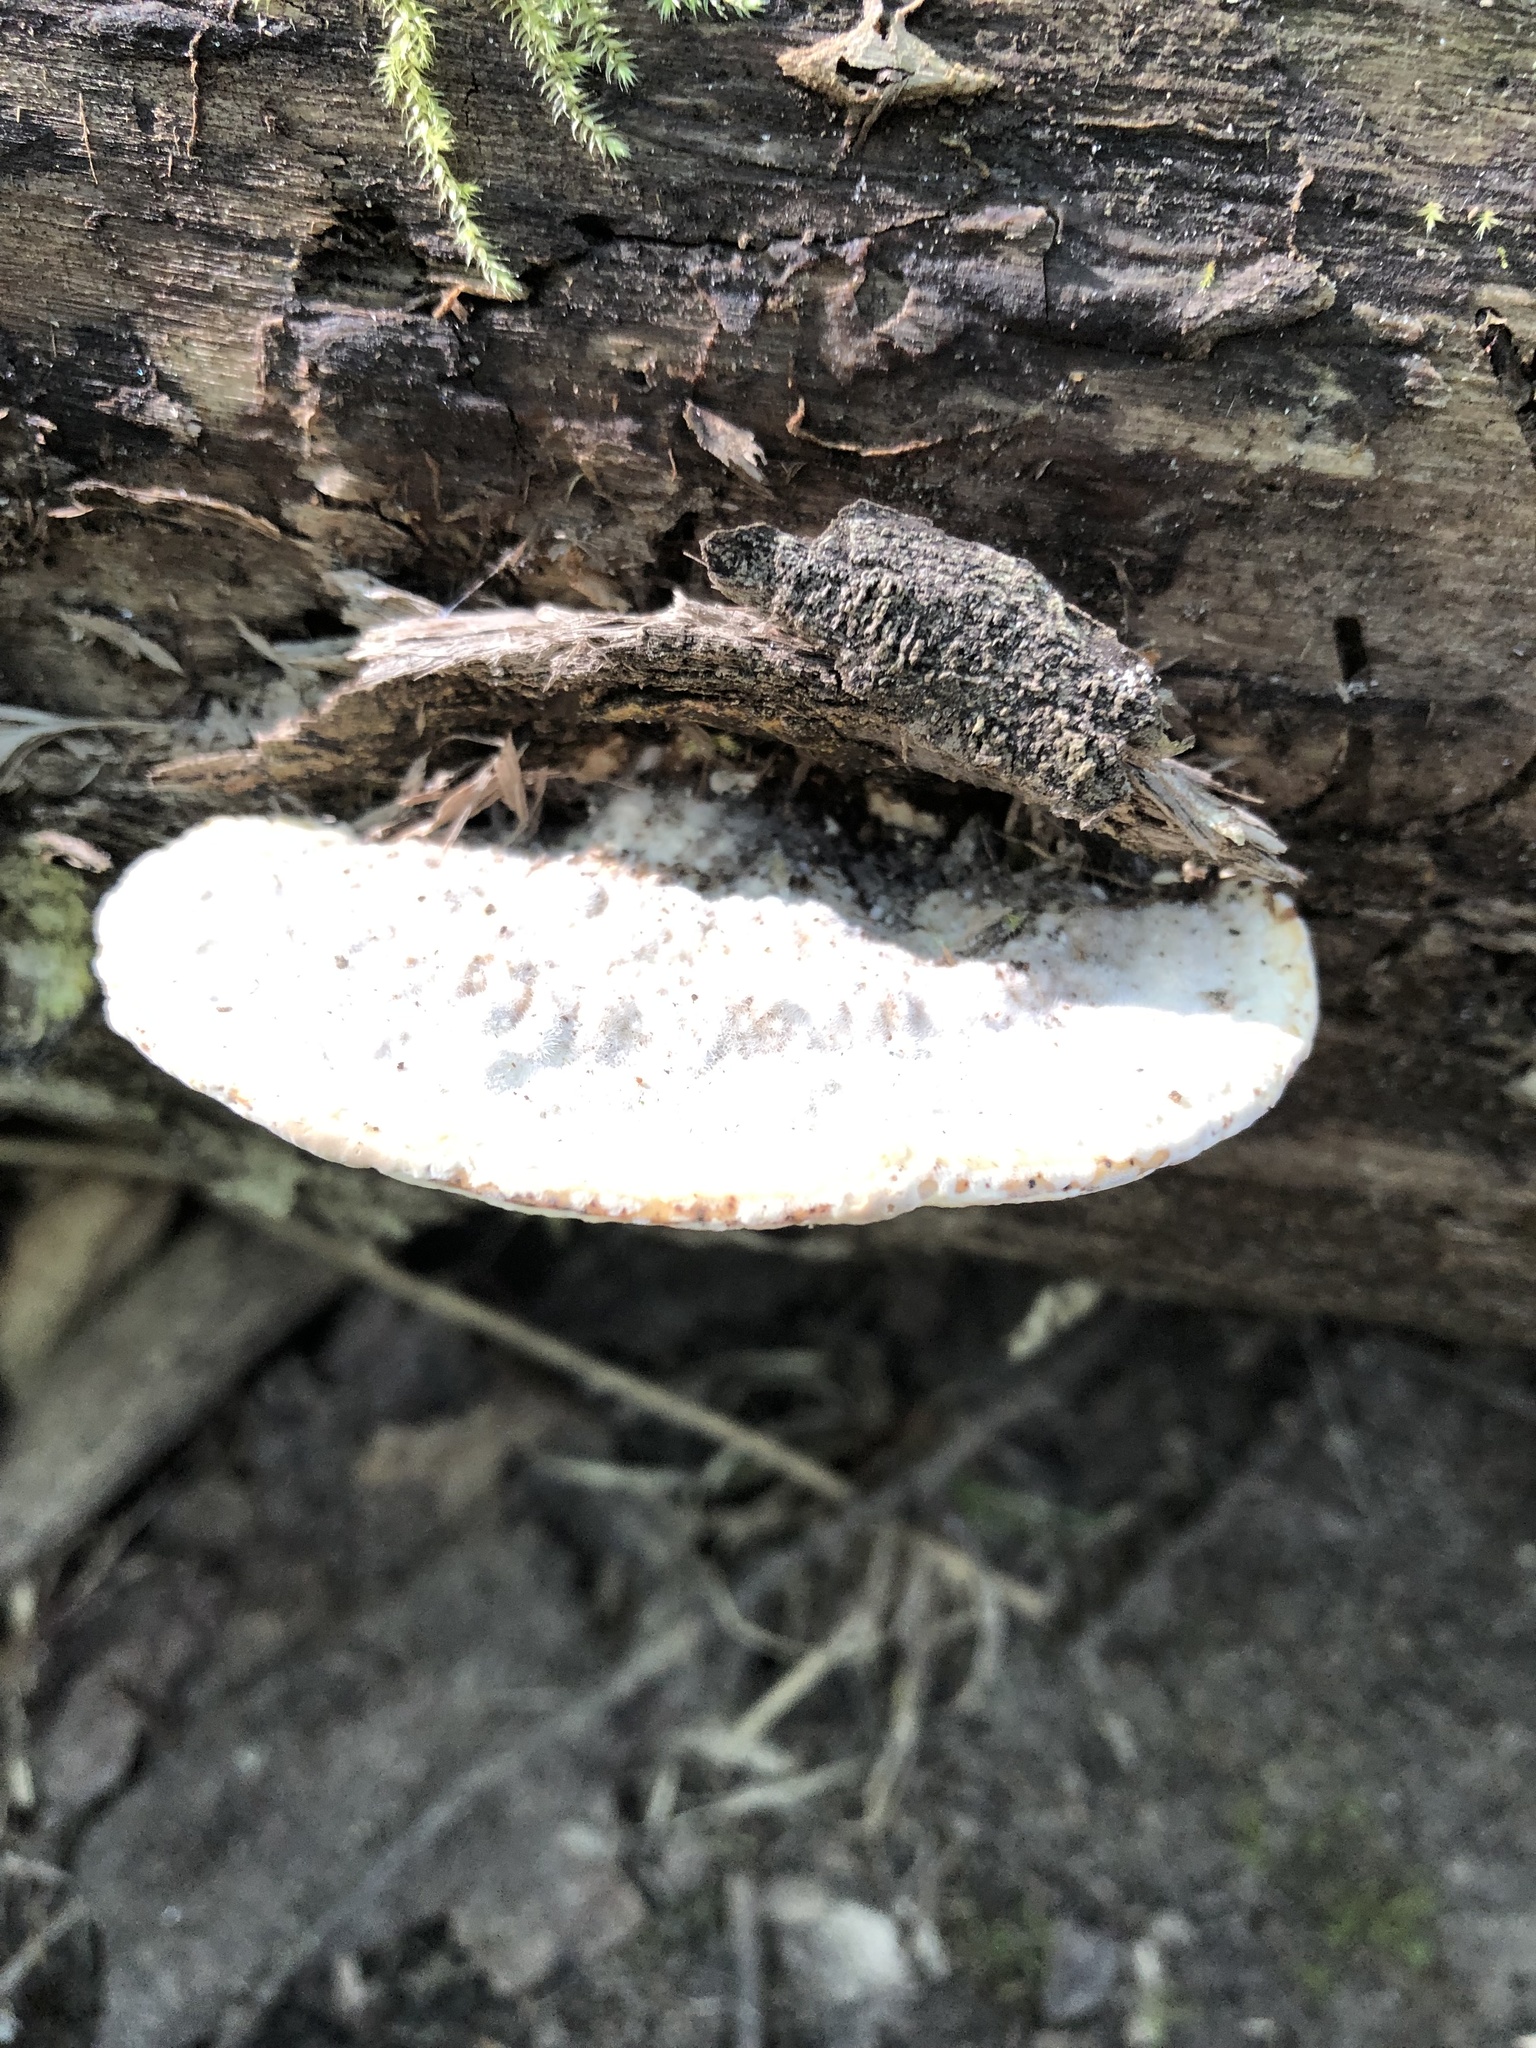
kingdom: Fungi
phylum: Basidiomycota
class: Agaricomycetes
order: Polyporales
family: Polyporaceae
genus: Trametes
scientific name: Trametes gibbosa
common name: Lumpy bracket
